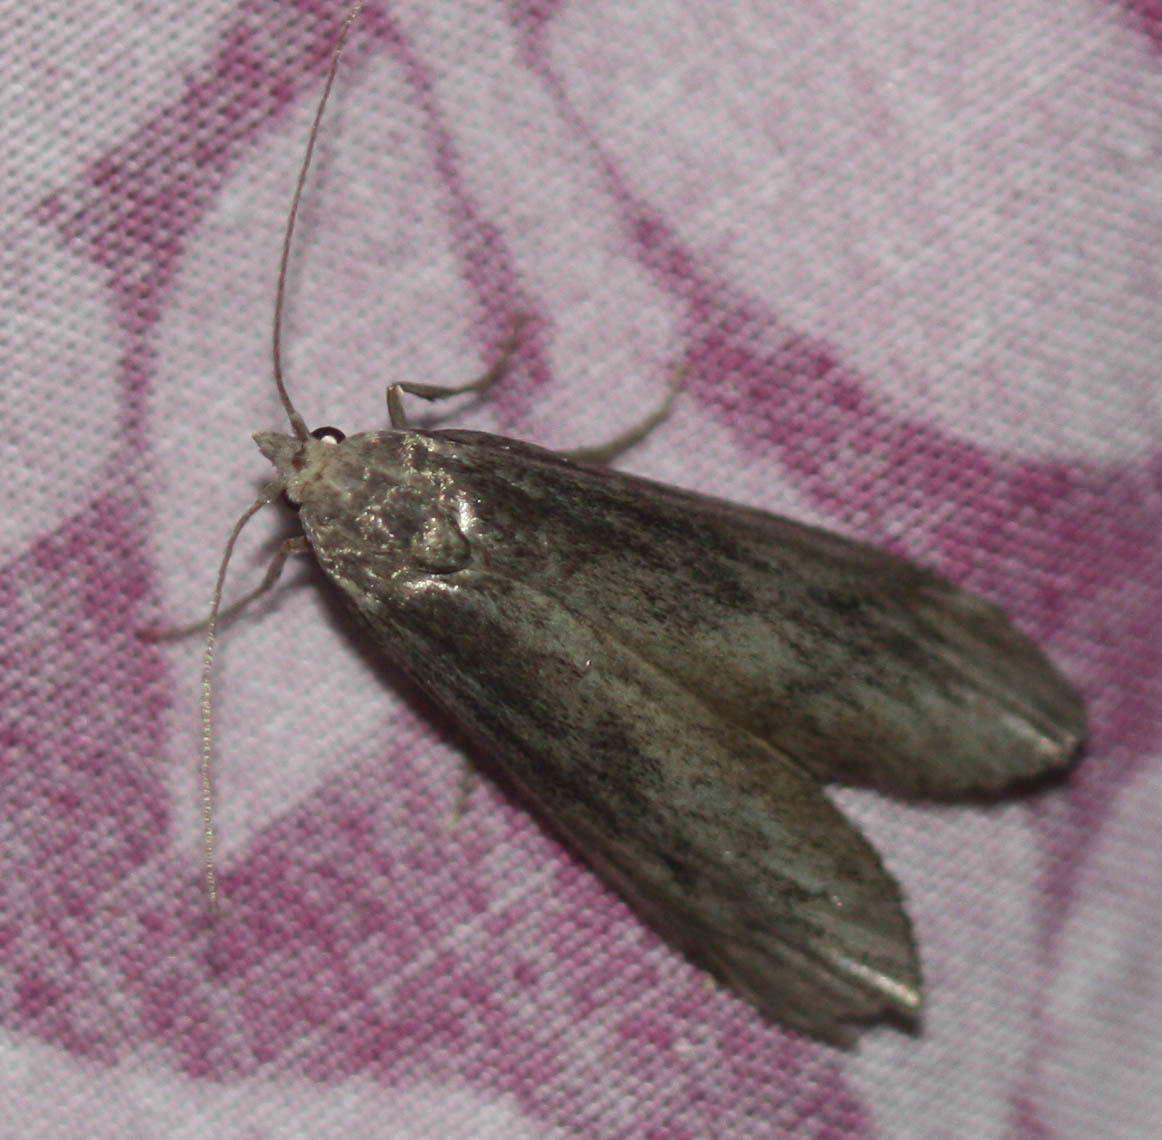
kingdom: Animalia
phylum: Arthropoda
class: Insecta
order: Lepidoptera
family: Pyralidae
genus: Aphomia
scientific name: Aphomia terrenella
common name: Terrenella bee moth
